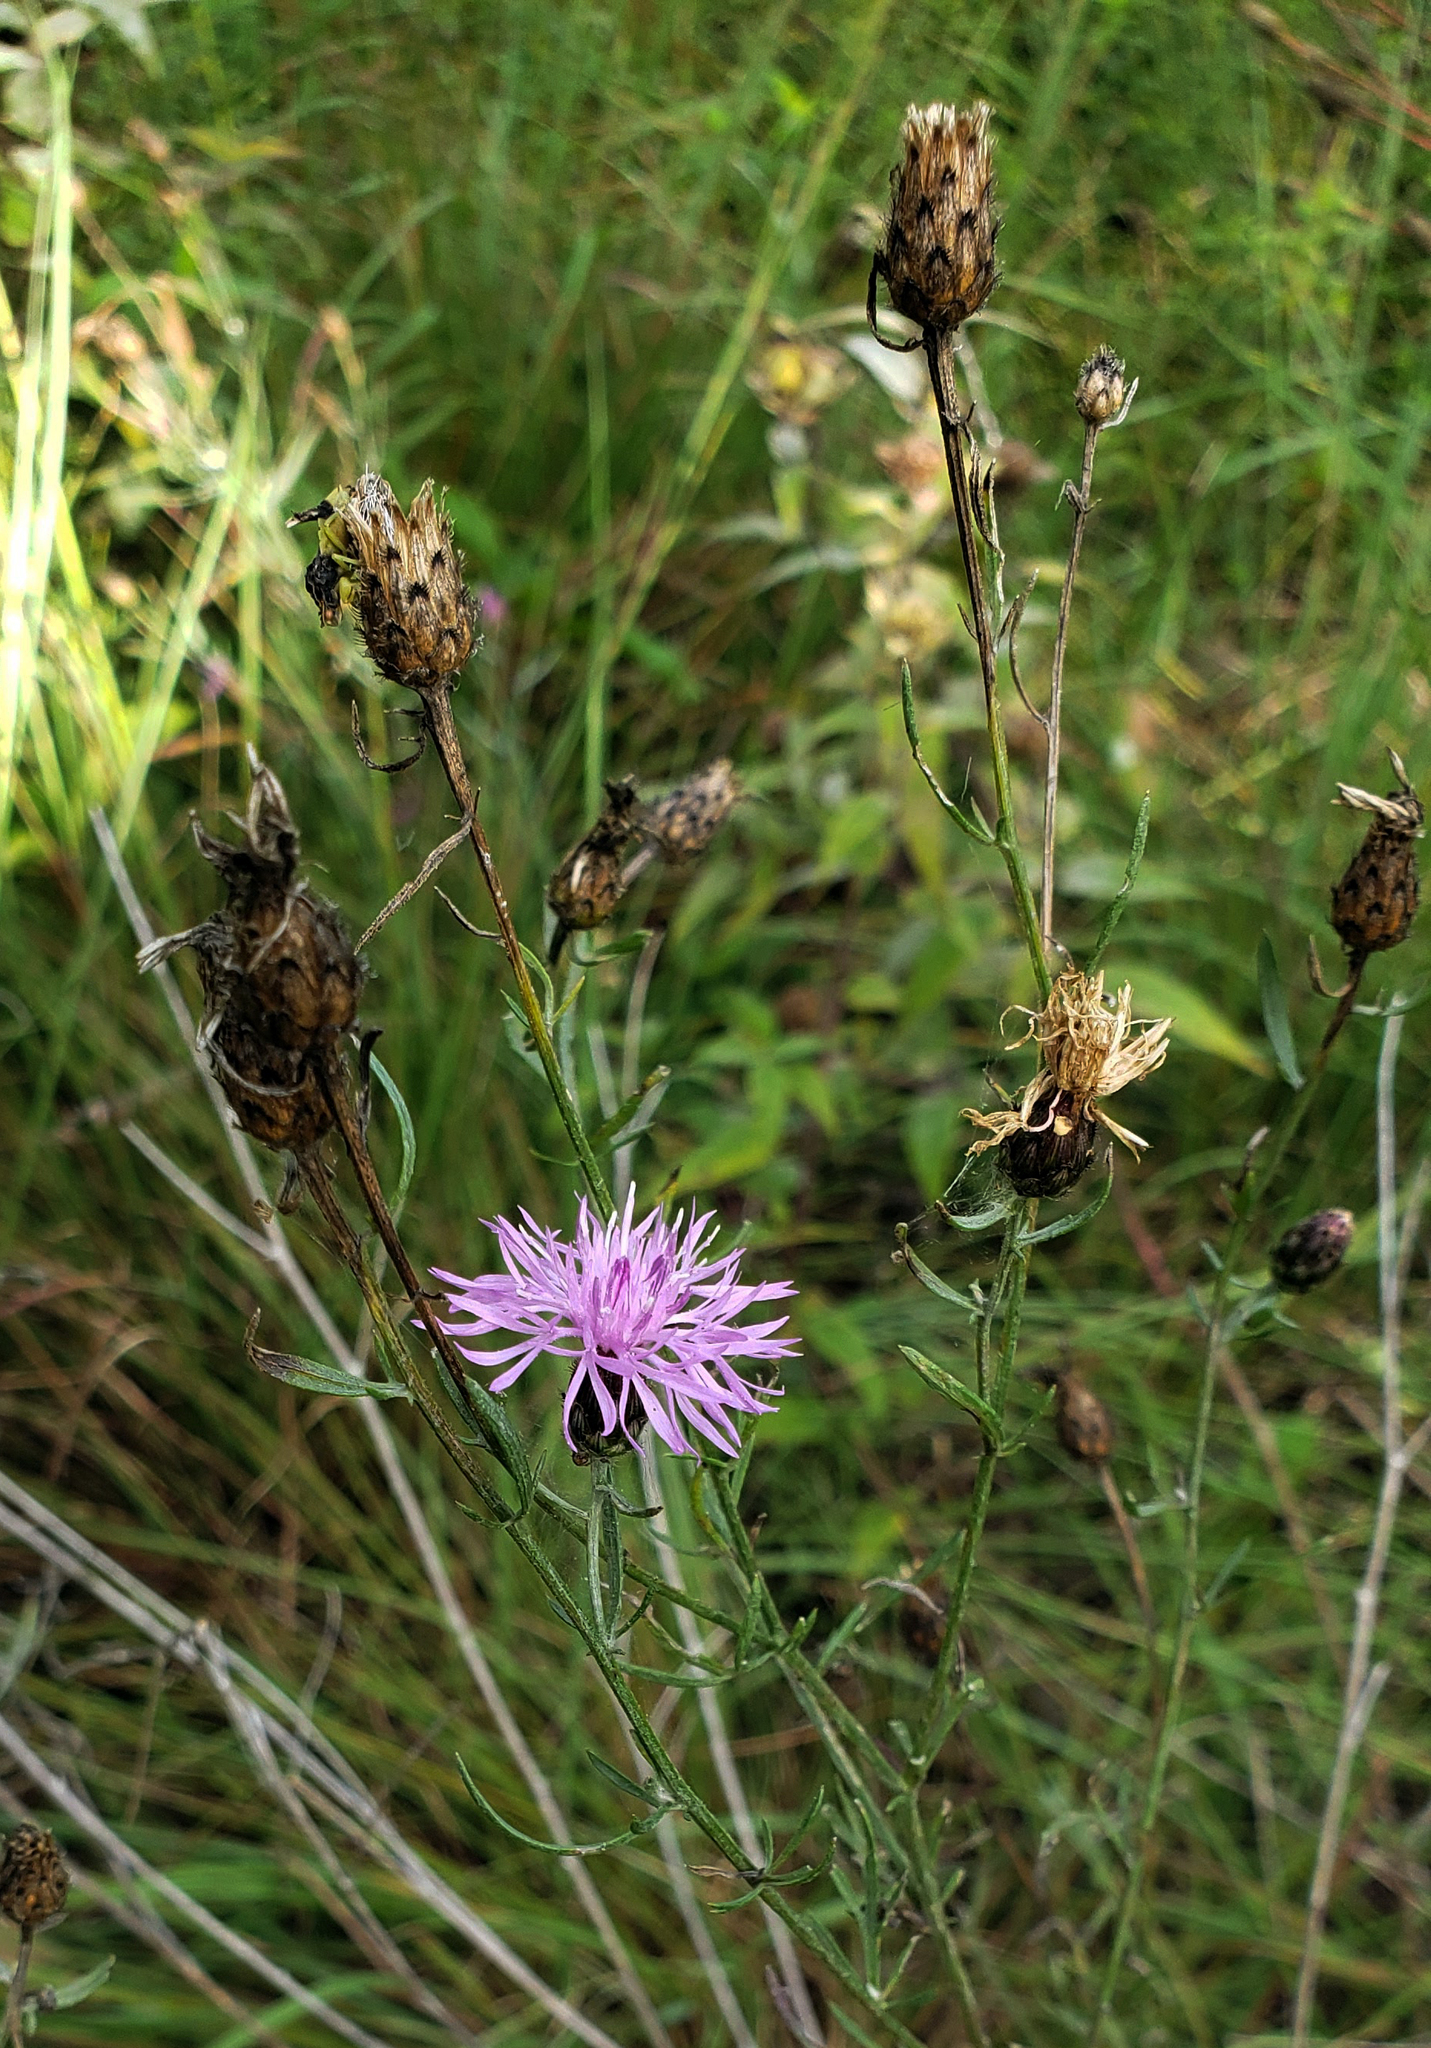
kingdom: Plantae
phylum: Tracheophyta
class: Magnoliopsida
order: Asterales
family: Asteraceae
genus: Centaurea
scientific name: Centaurea stoebe
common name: Spotted knapweed
